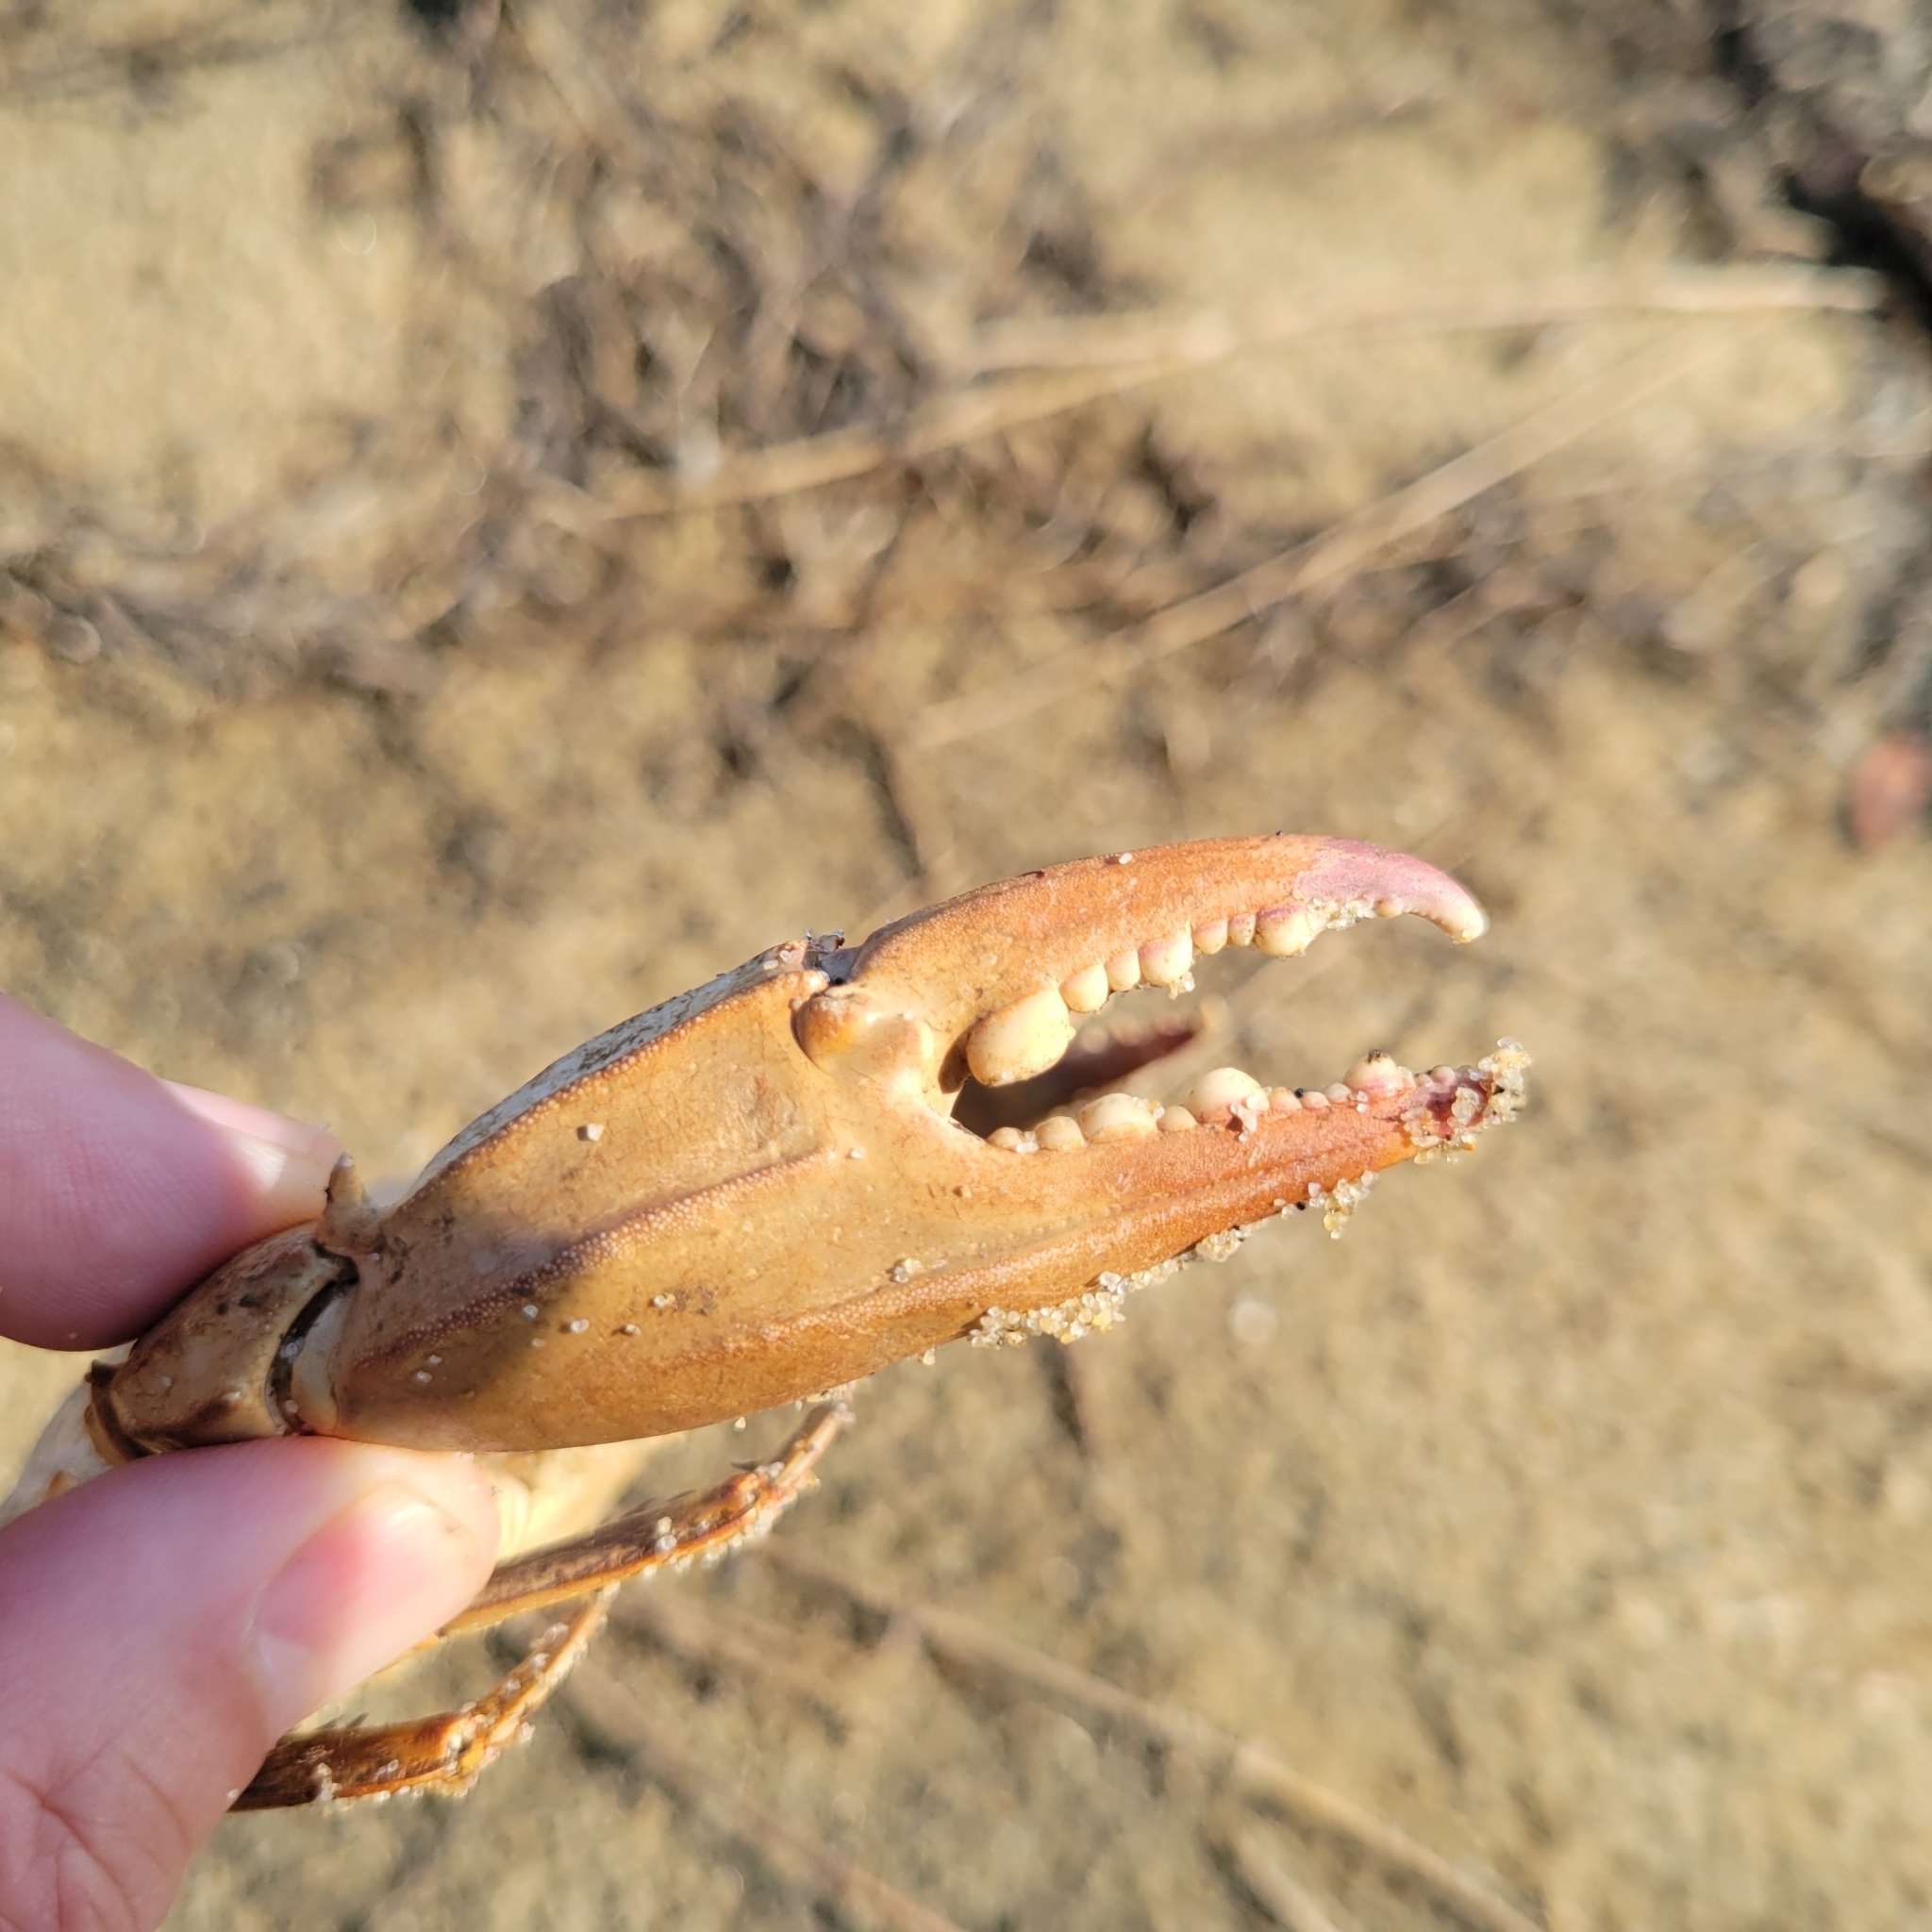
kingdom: Animalia
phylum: Arthropoda
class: Malacostraca
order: Decapoda
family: Portunidae
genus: Callinectes
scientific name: Callinectes sapidus
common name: Blue crab
